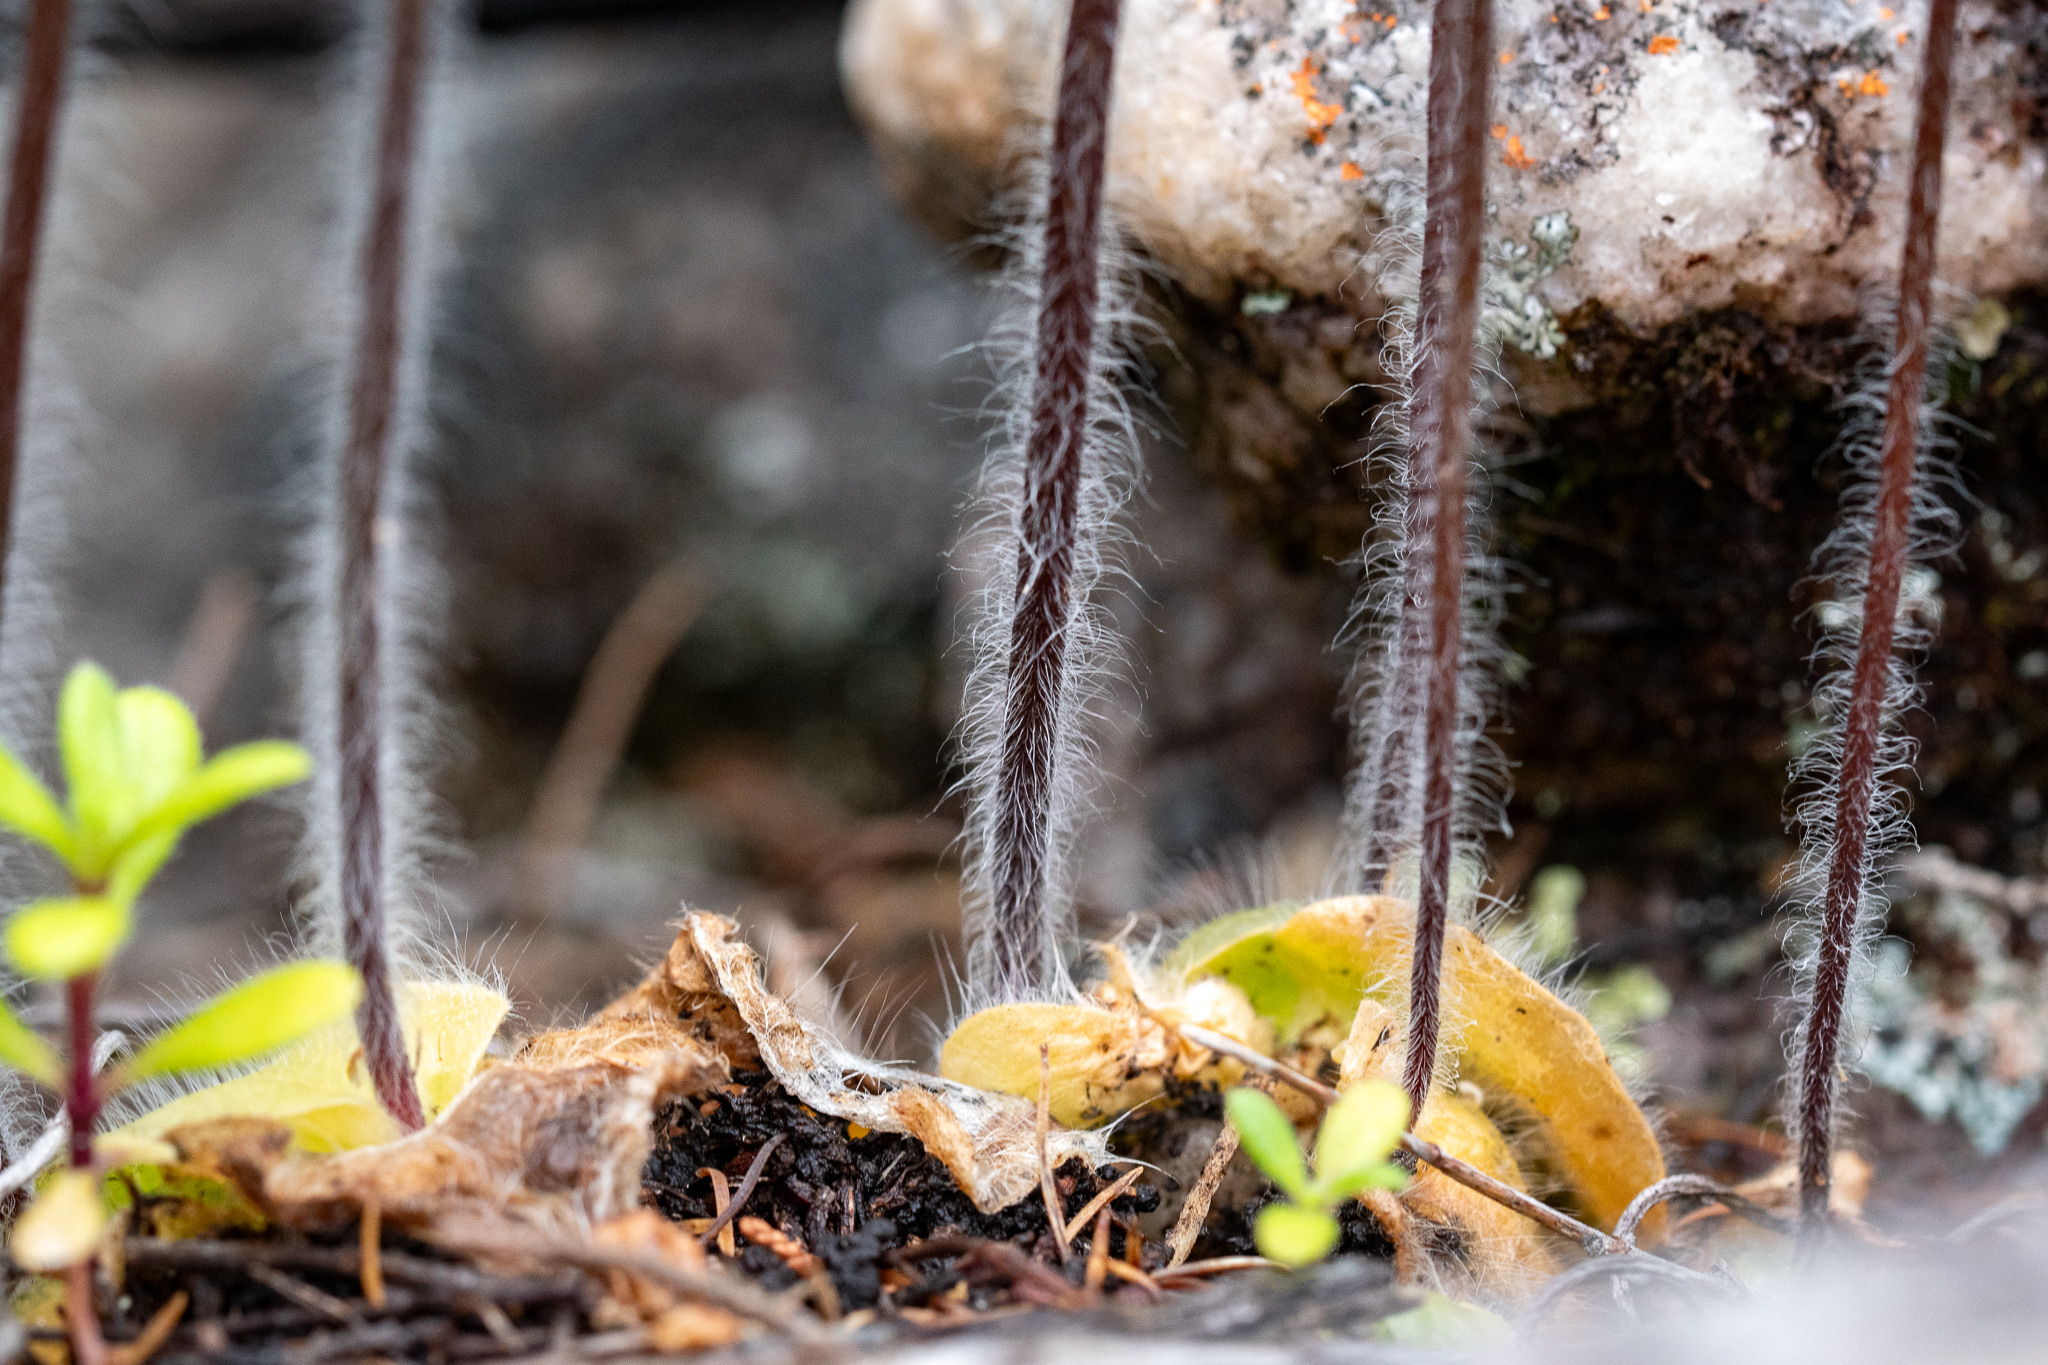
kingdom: Plantae
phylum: Tracheophyta
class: Liliopsida
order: Asparagales
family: Orchidaceae
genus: Holothrix
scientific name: Holothrix villosa
